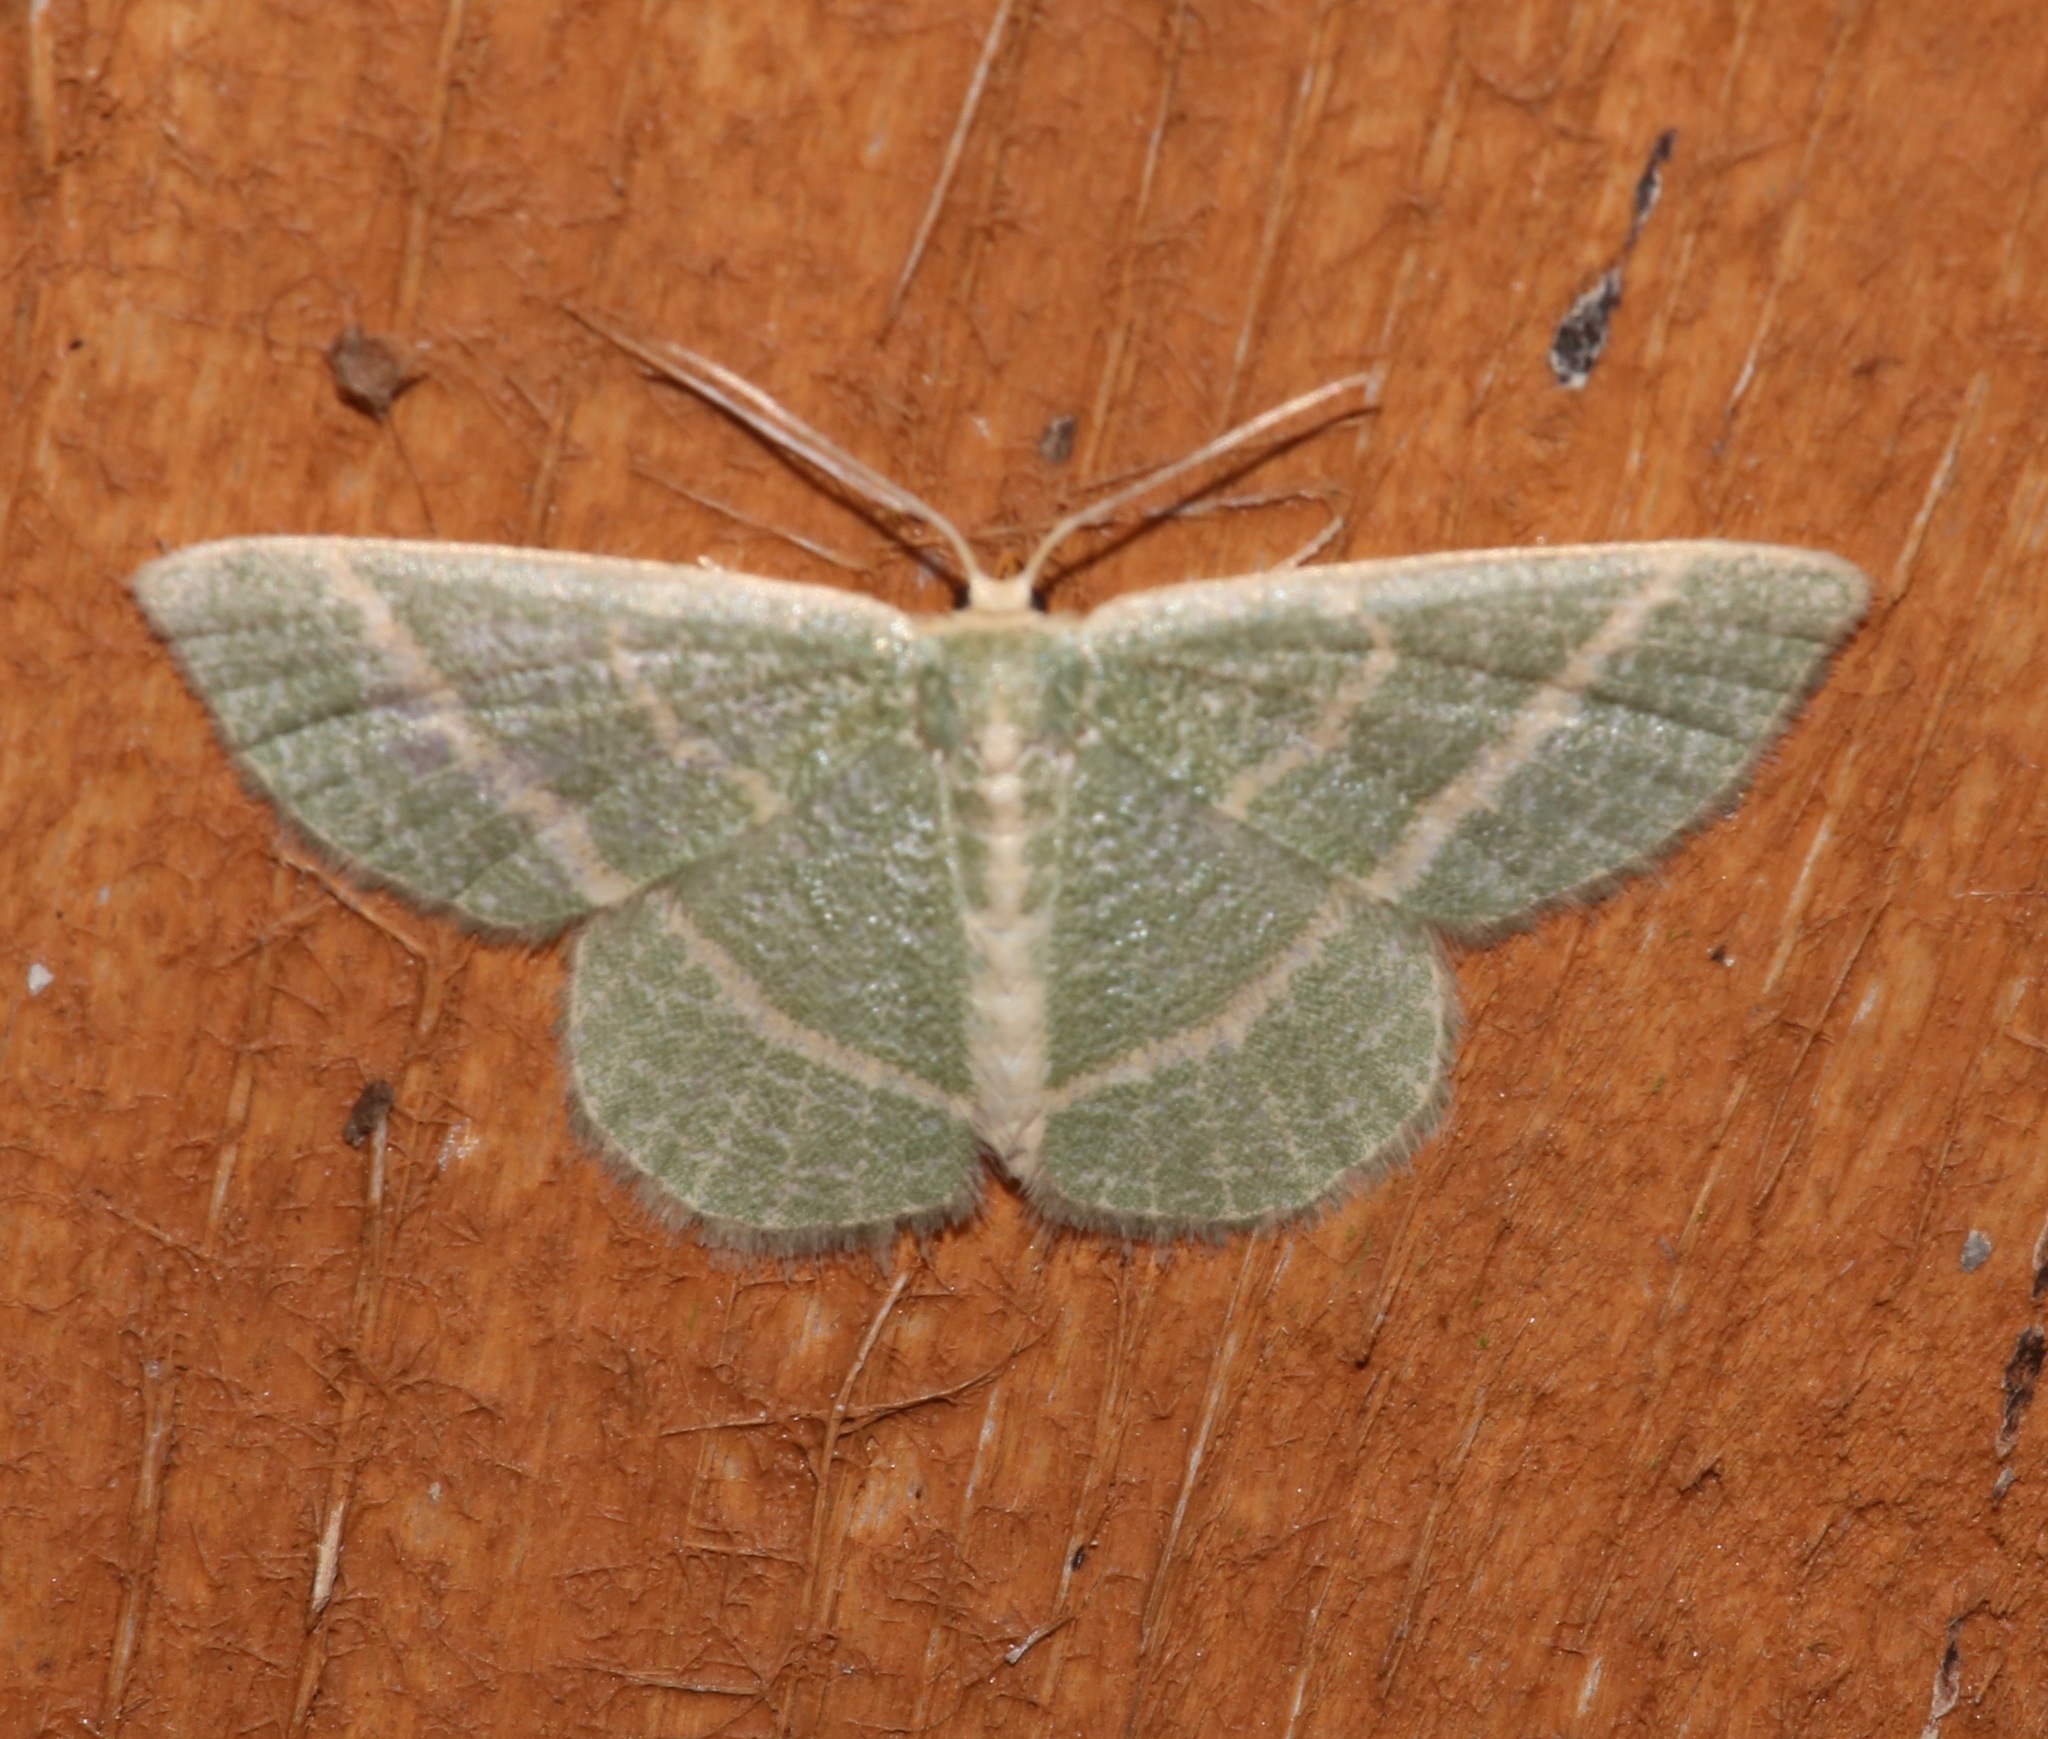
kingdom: Animalia
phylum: Arthropoda
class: Insecta
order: Lepidoptera
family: Geometridae
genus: Chlorochlamys
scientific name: Chlorochlamys chloroleucaria
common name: Blackberry looper
